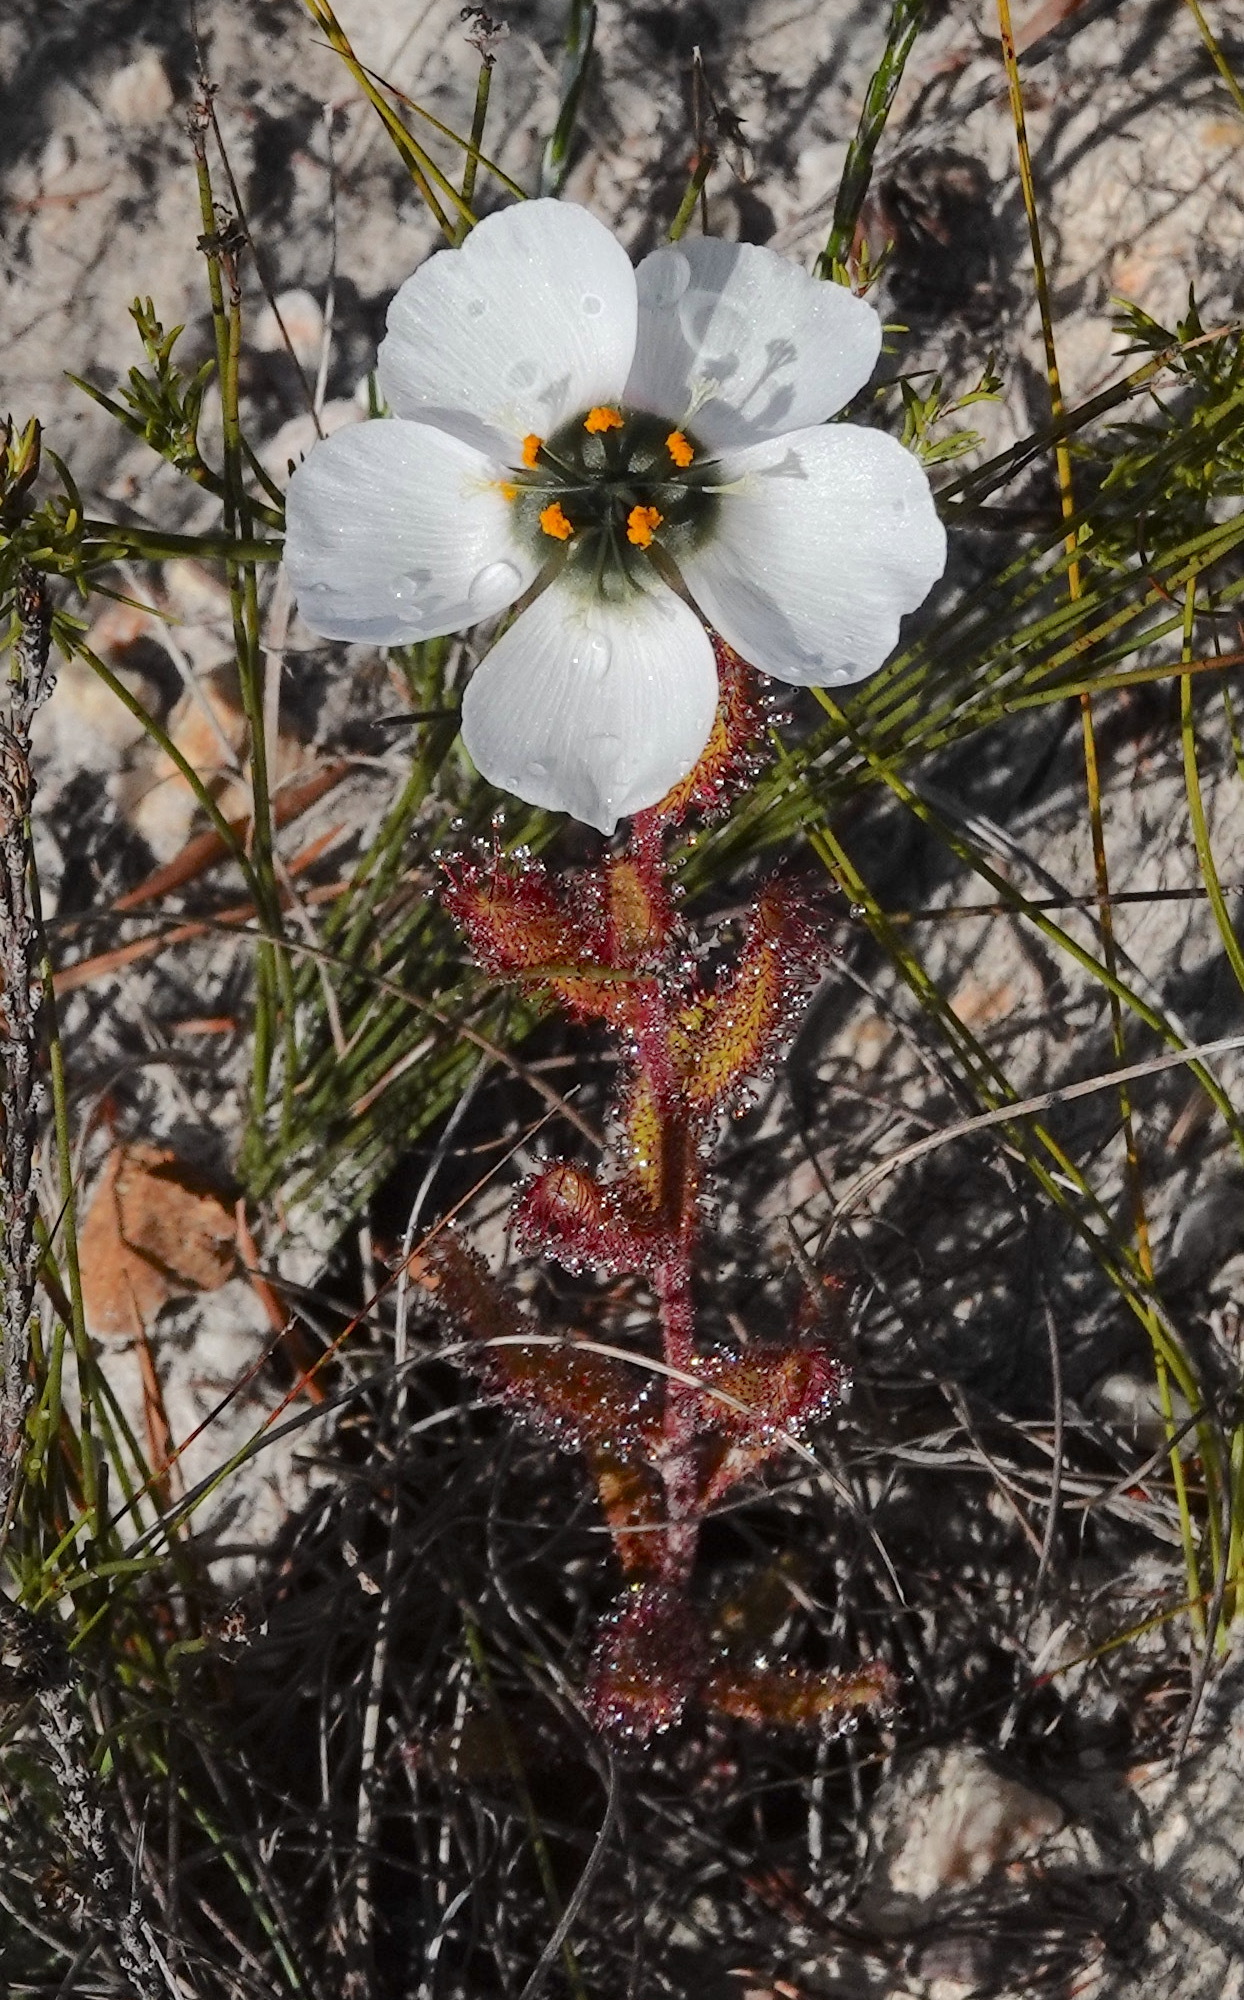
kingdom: Plantae
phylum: Tracheophyta
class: Magnoliopsida
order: Caryophyllales
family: Droseraceae
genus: Drosera
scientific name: Drosera cistiflora
